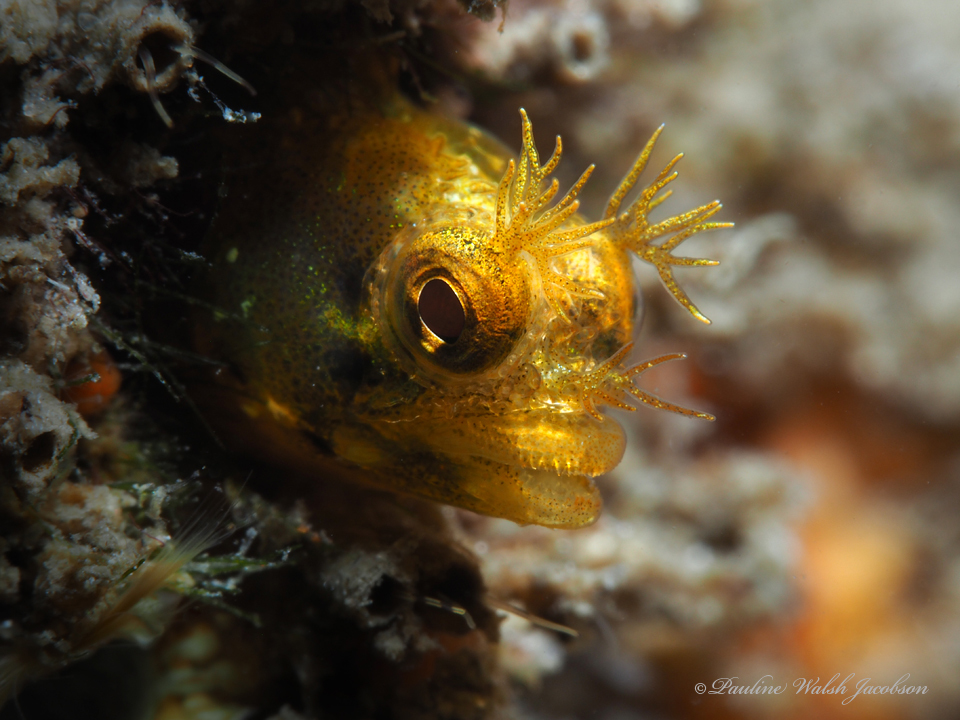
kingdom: Animalia
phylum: Chordata
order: Perciformes
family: Chaenopsidae
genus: Acanthemblemaria
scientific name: Acanthemblemaria aspera
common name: Roughhead blenny
